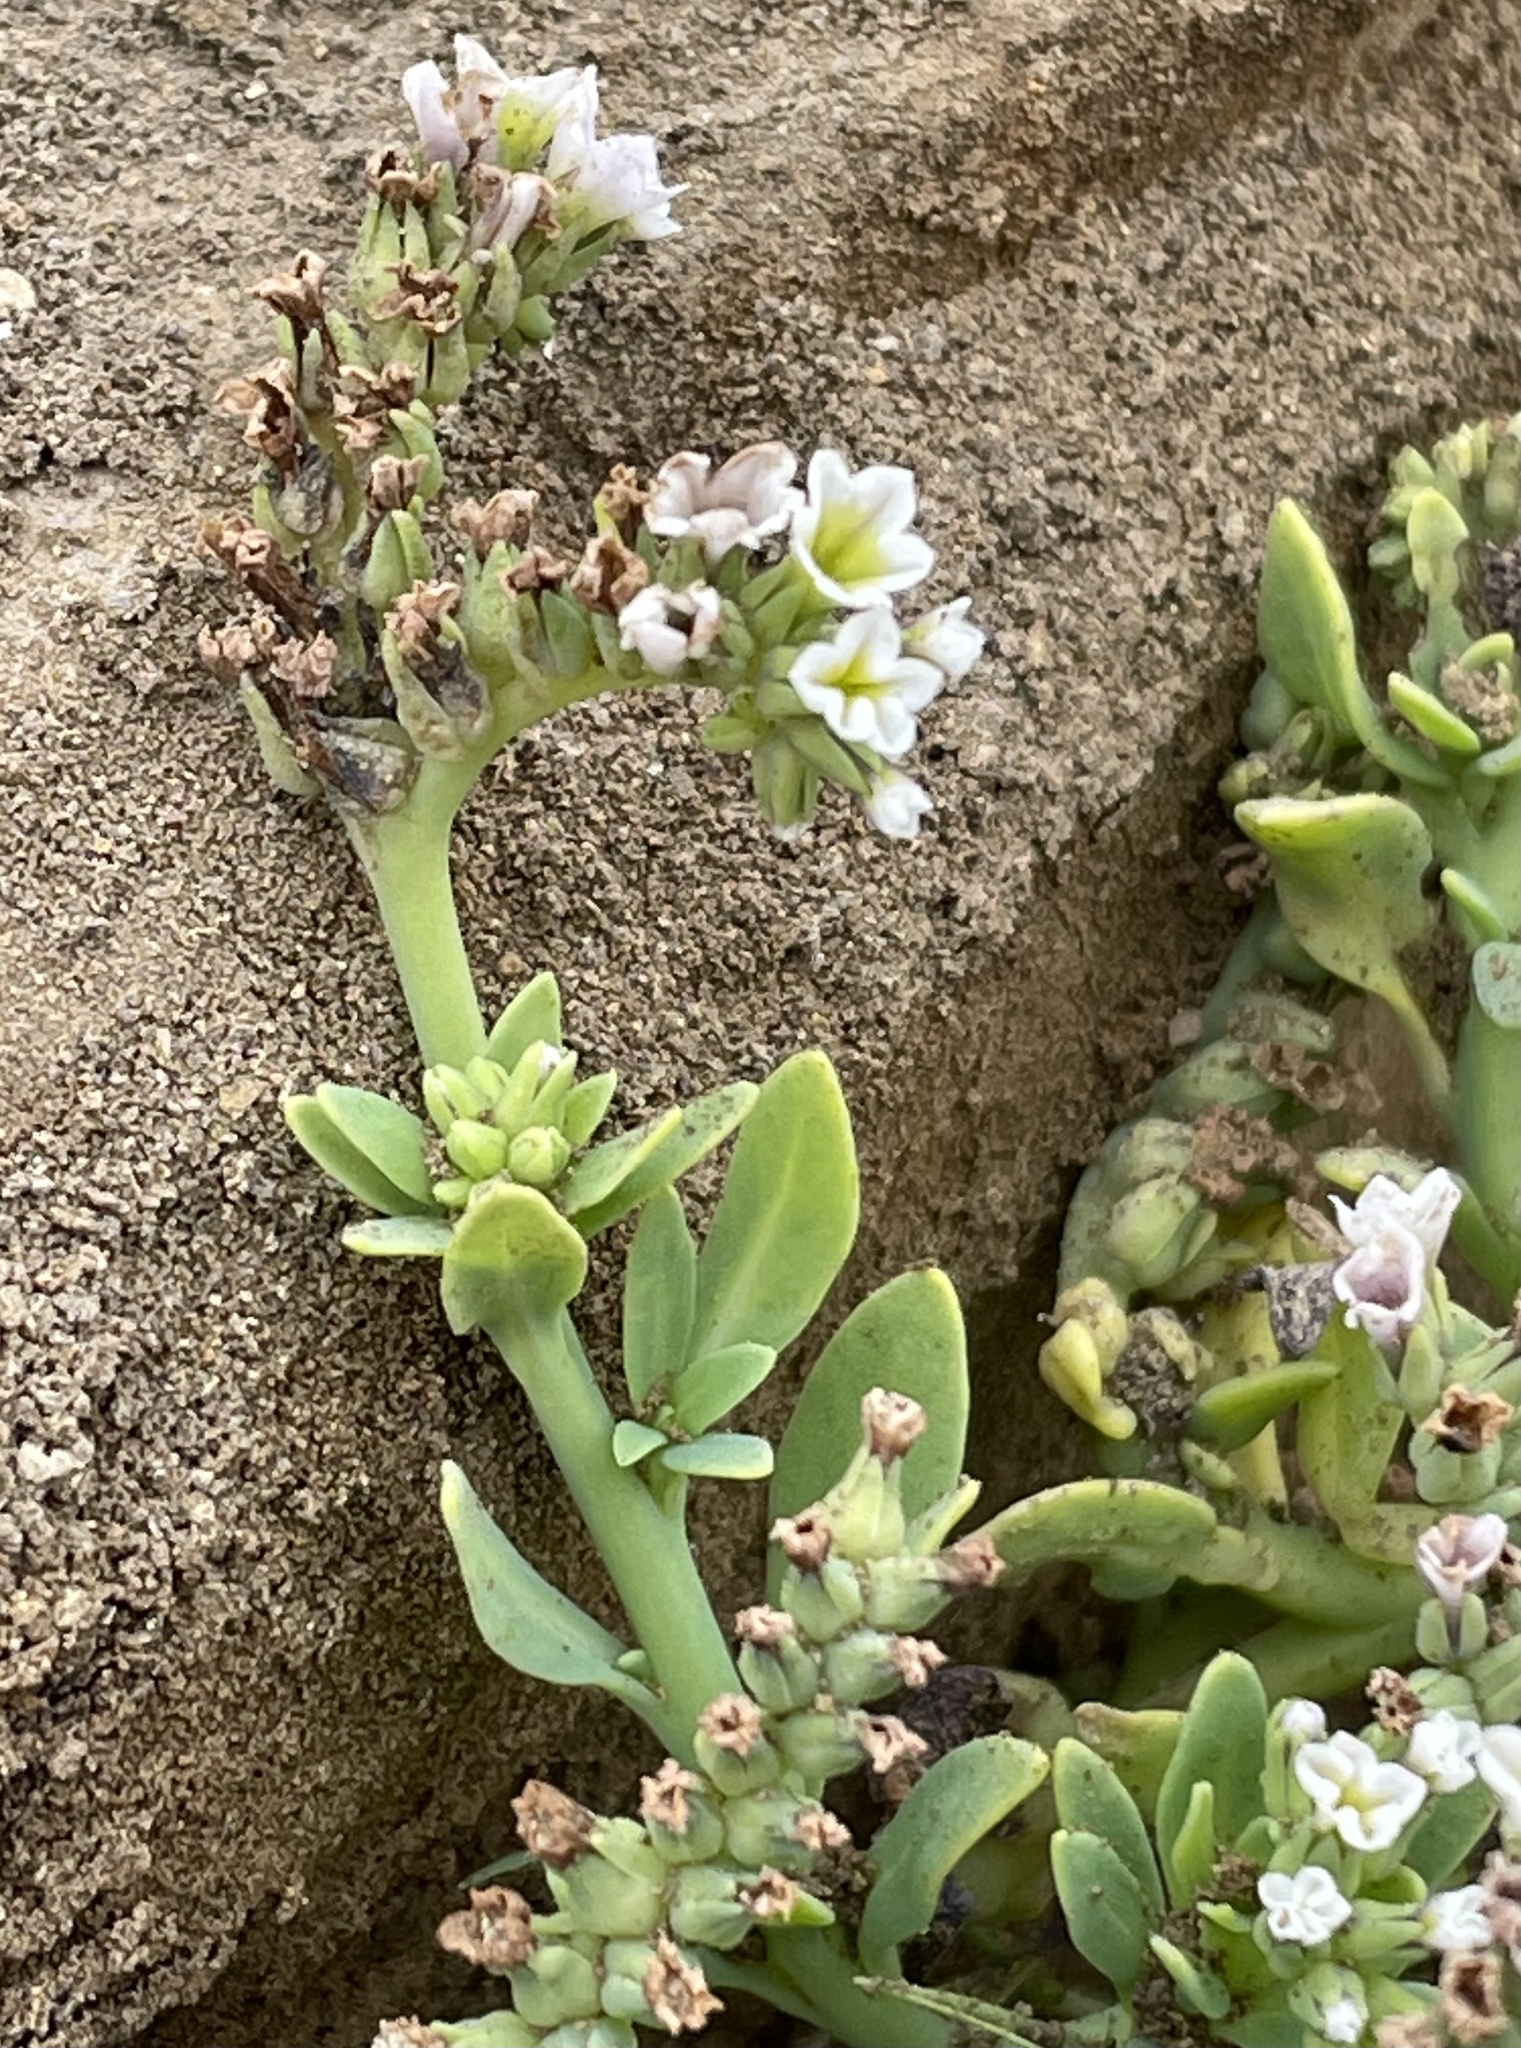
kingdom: Plantae
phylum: Tracheophyta
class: Magnoliopsida
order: Boraginales
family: Heliotropiaceae
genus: Heliotropium
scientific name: Heliotropium curassavicum
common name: Seaside heliotrope
